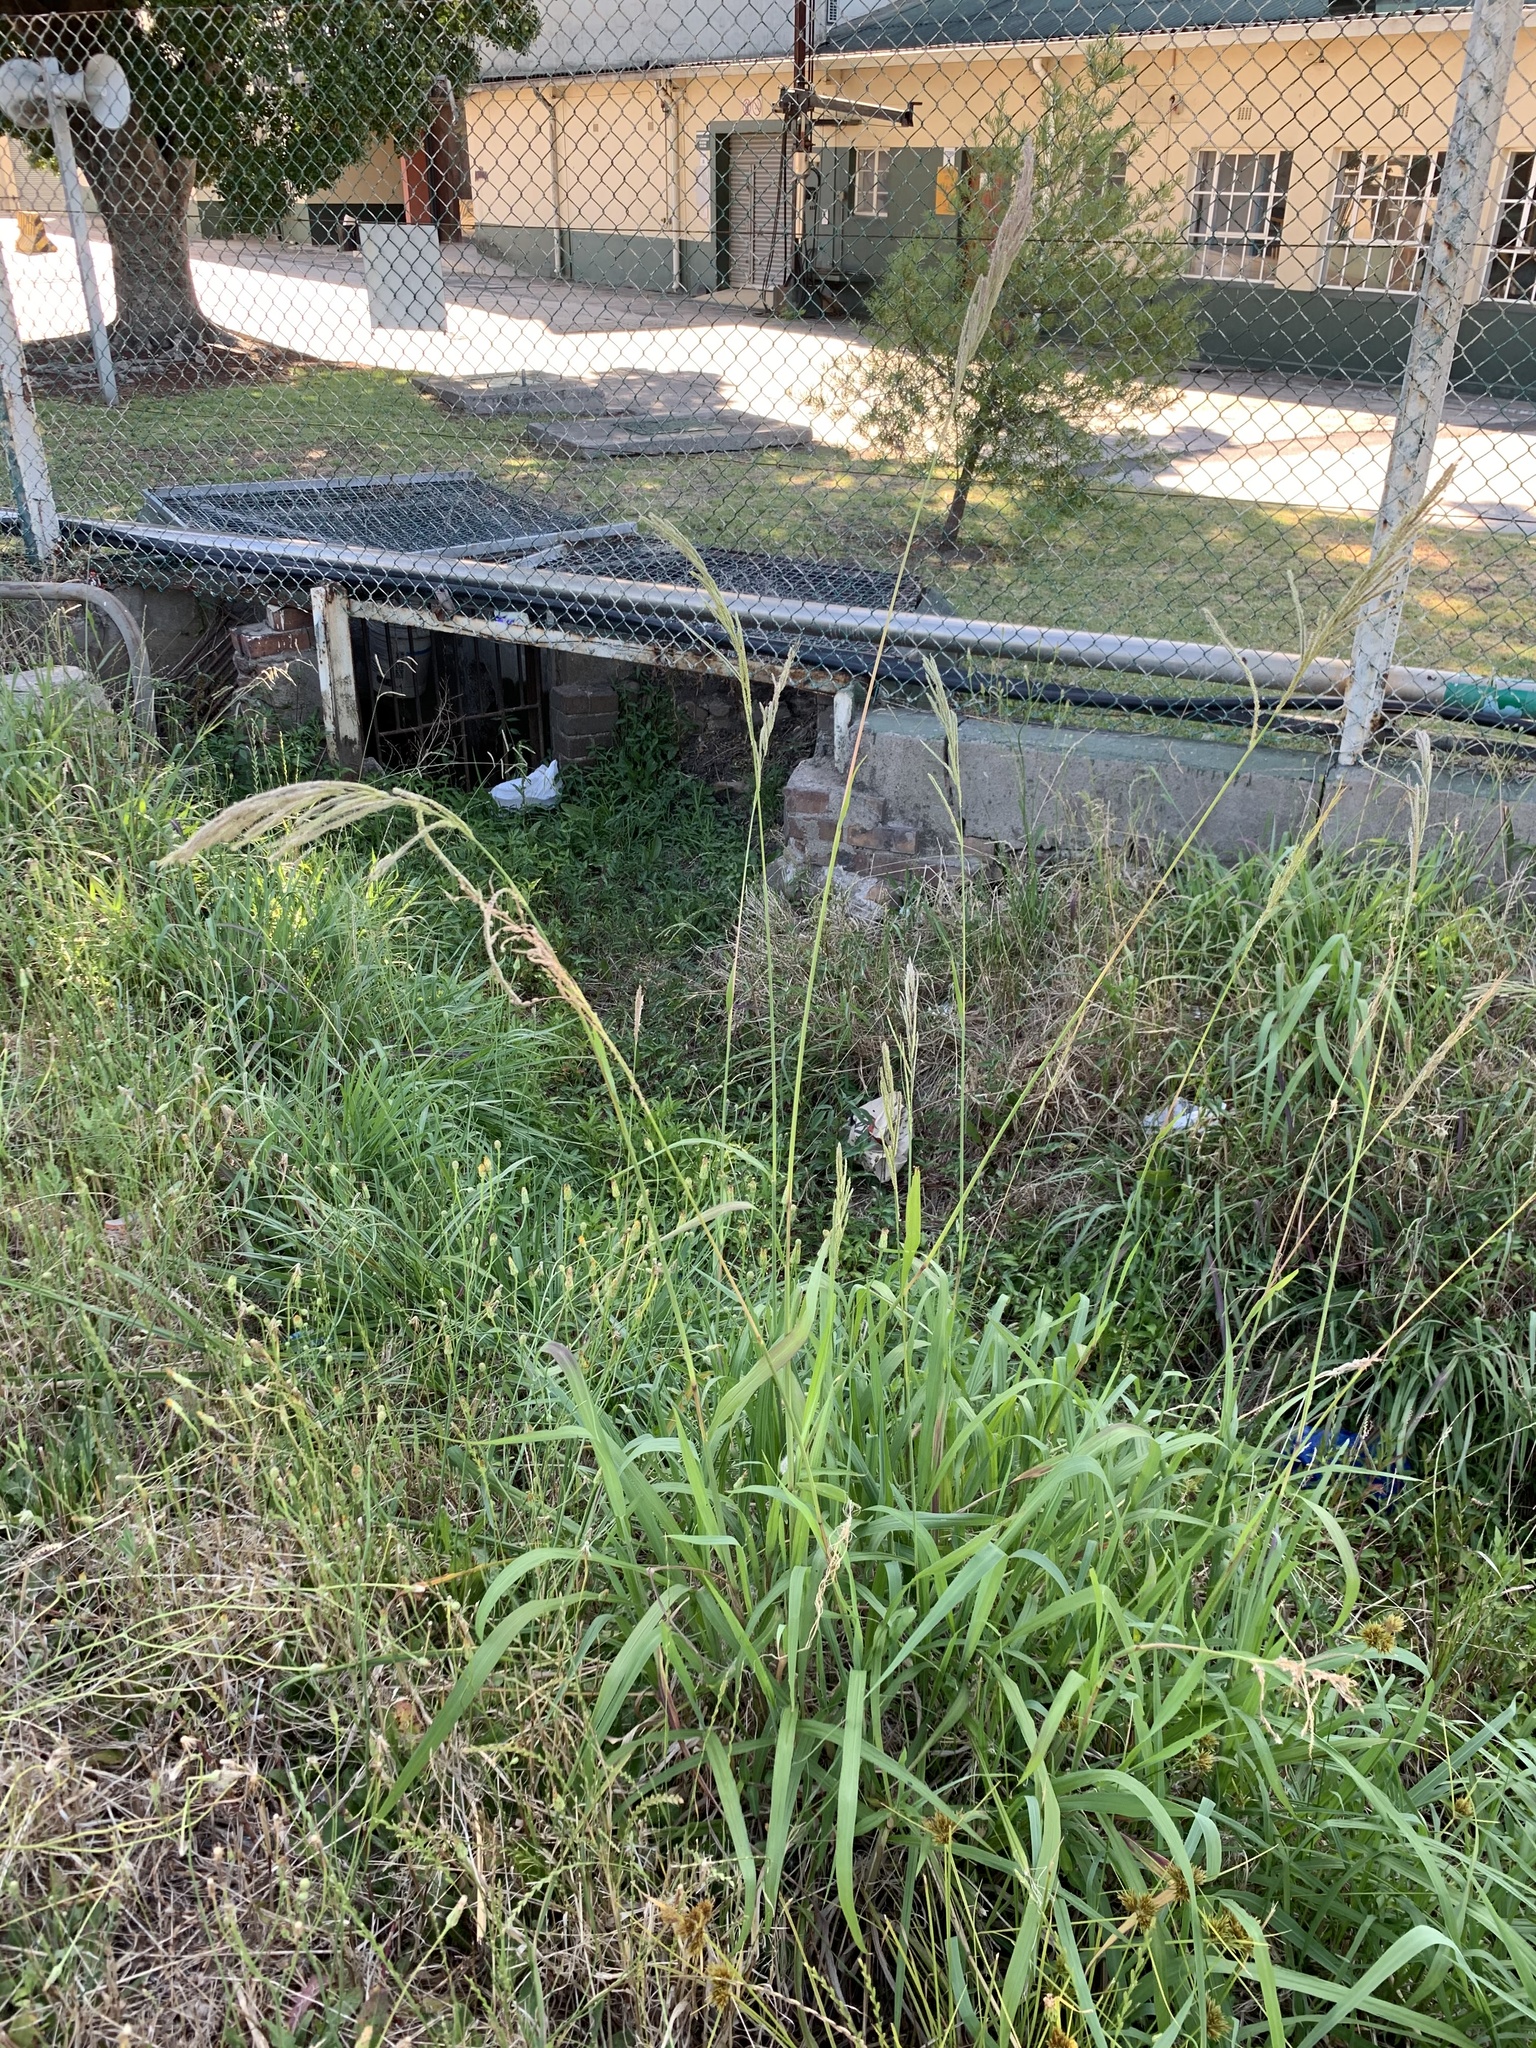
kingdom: Plantae
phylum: Tracheophyta
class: Liliopsida
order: Poales
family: Poaceae
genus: Paspalum
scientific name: Paspalum urvillei
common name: Vasey's grass
